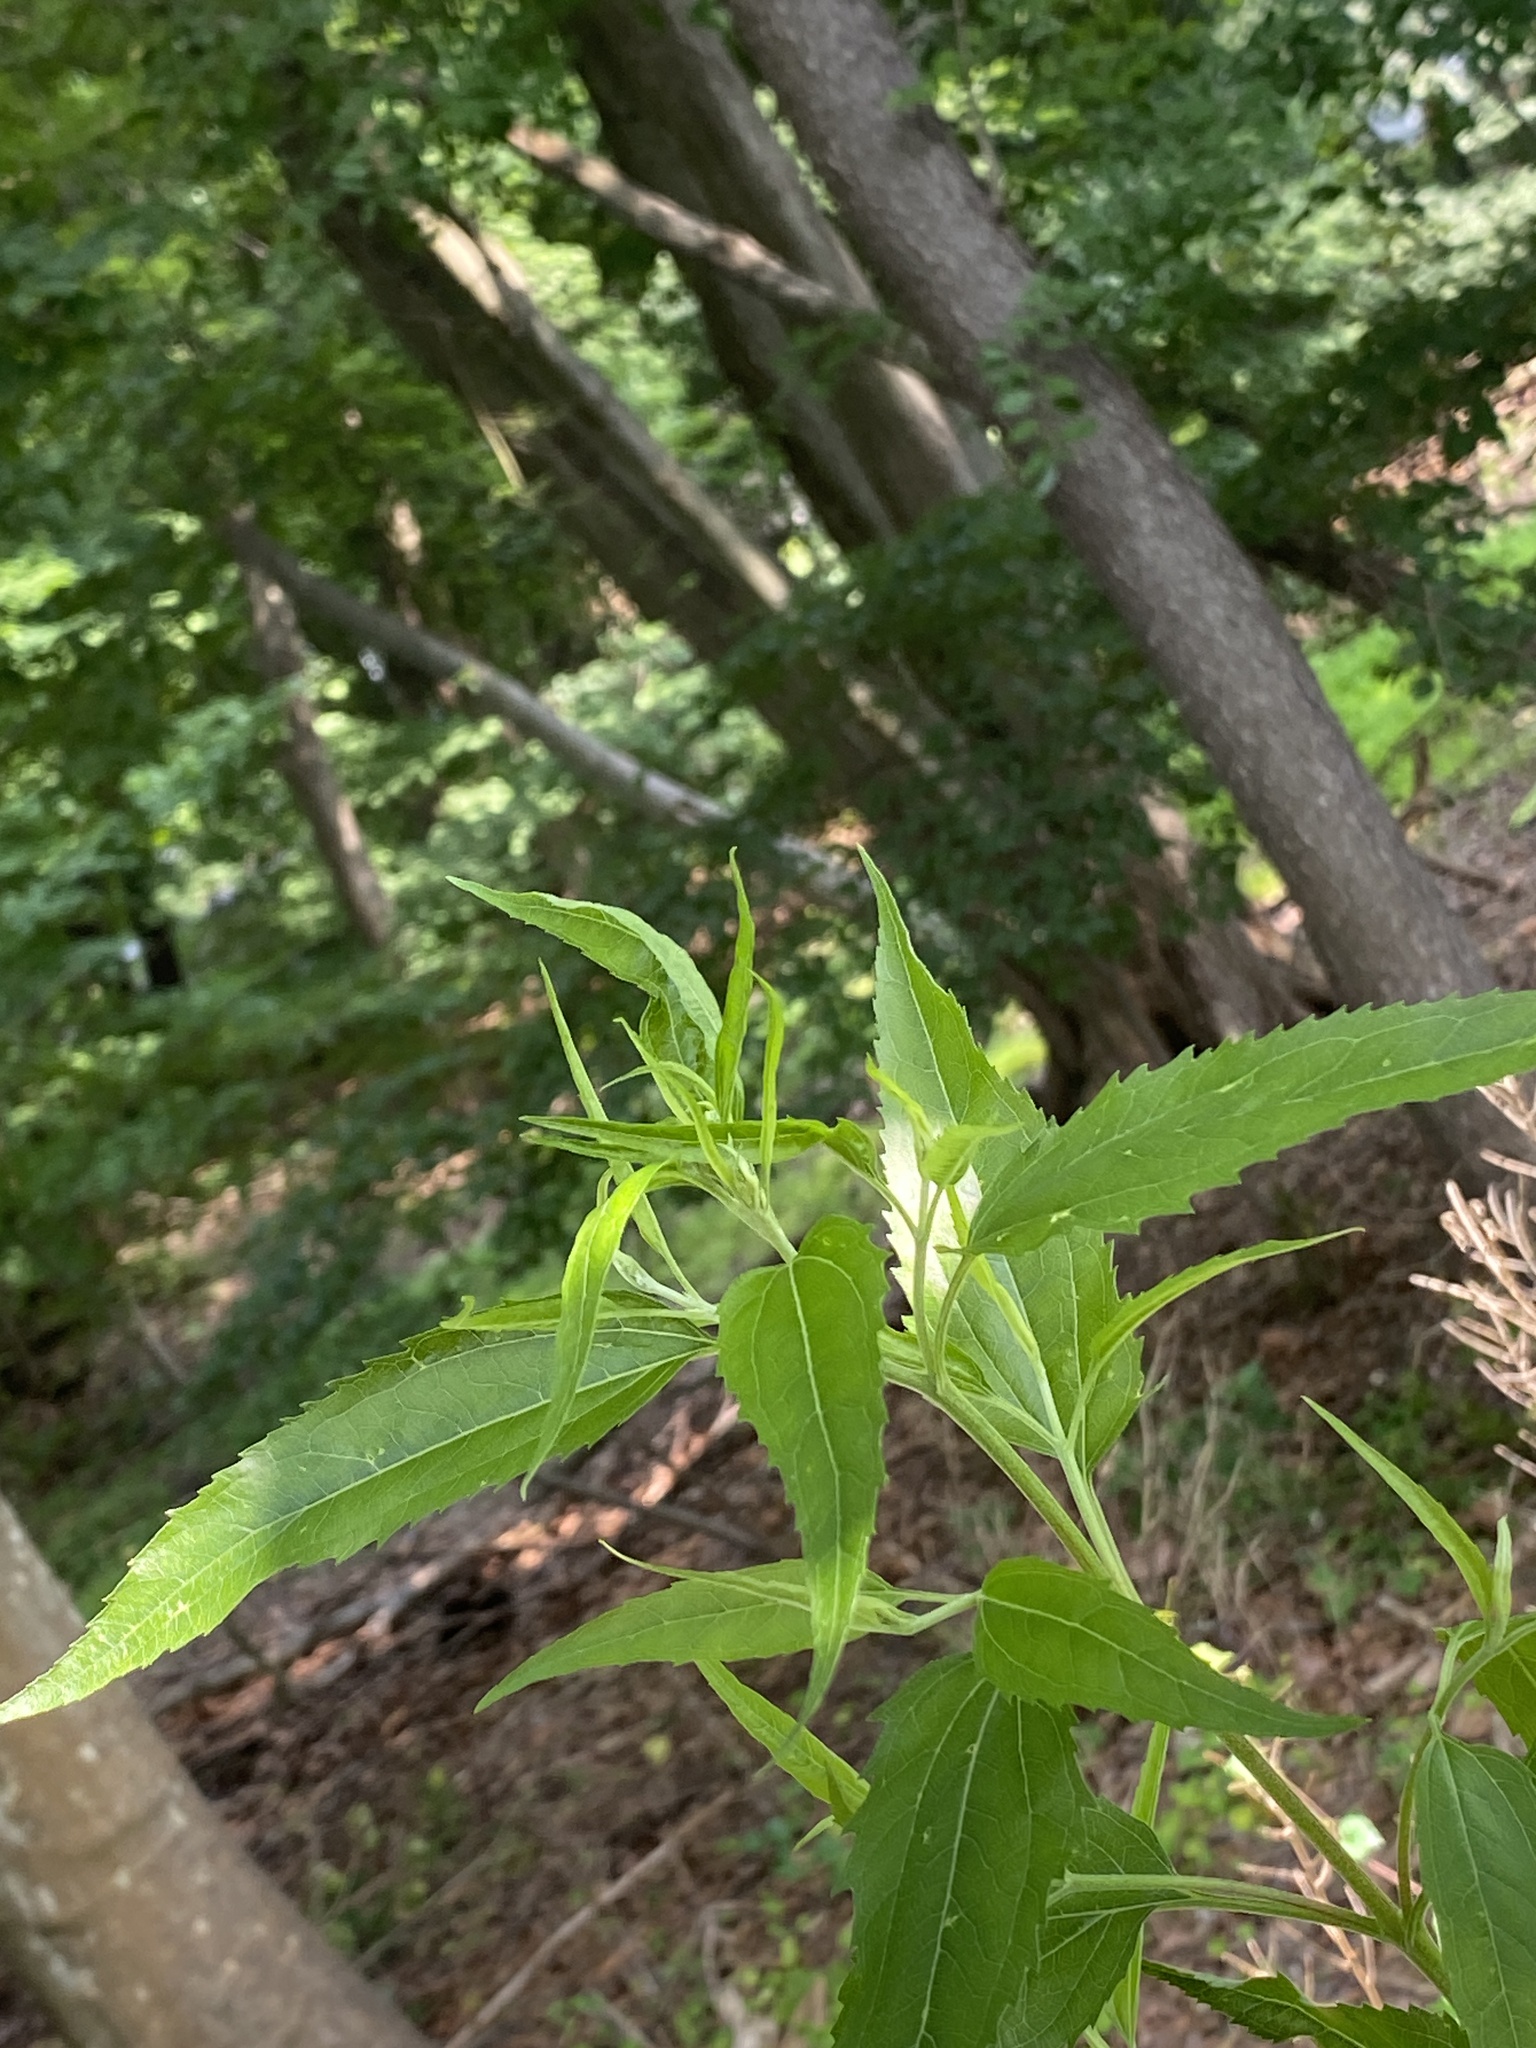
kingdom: Plantae
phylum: Tracheophyta
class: Magnoliopsida
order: Asterales
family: Asteraceae
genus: Eupatorium
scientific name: Eupatorium serotinum
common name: Late boneset
